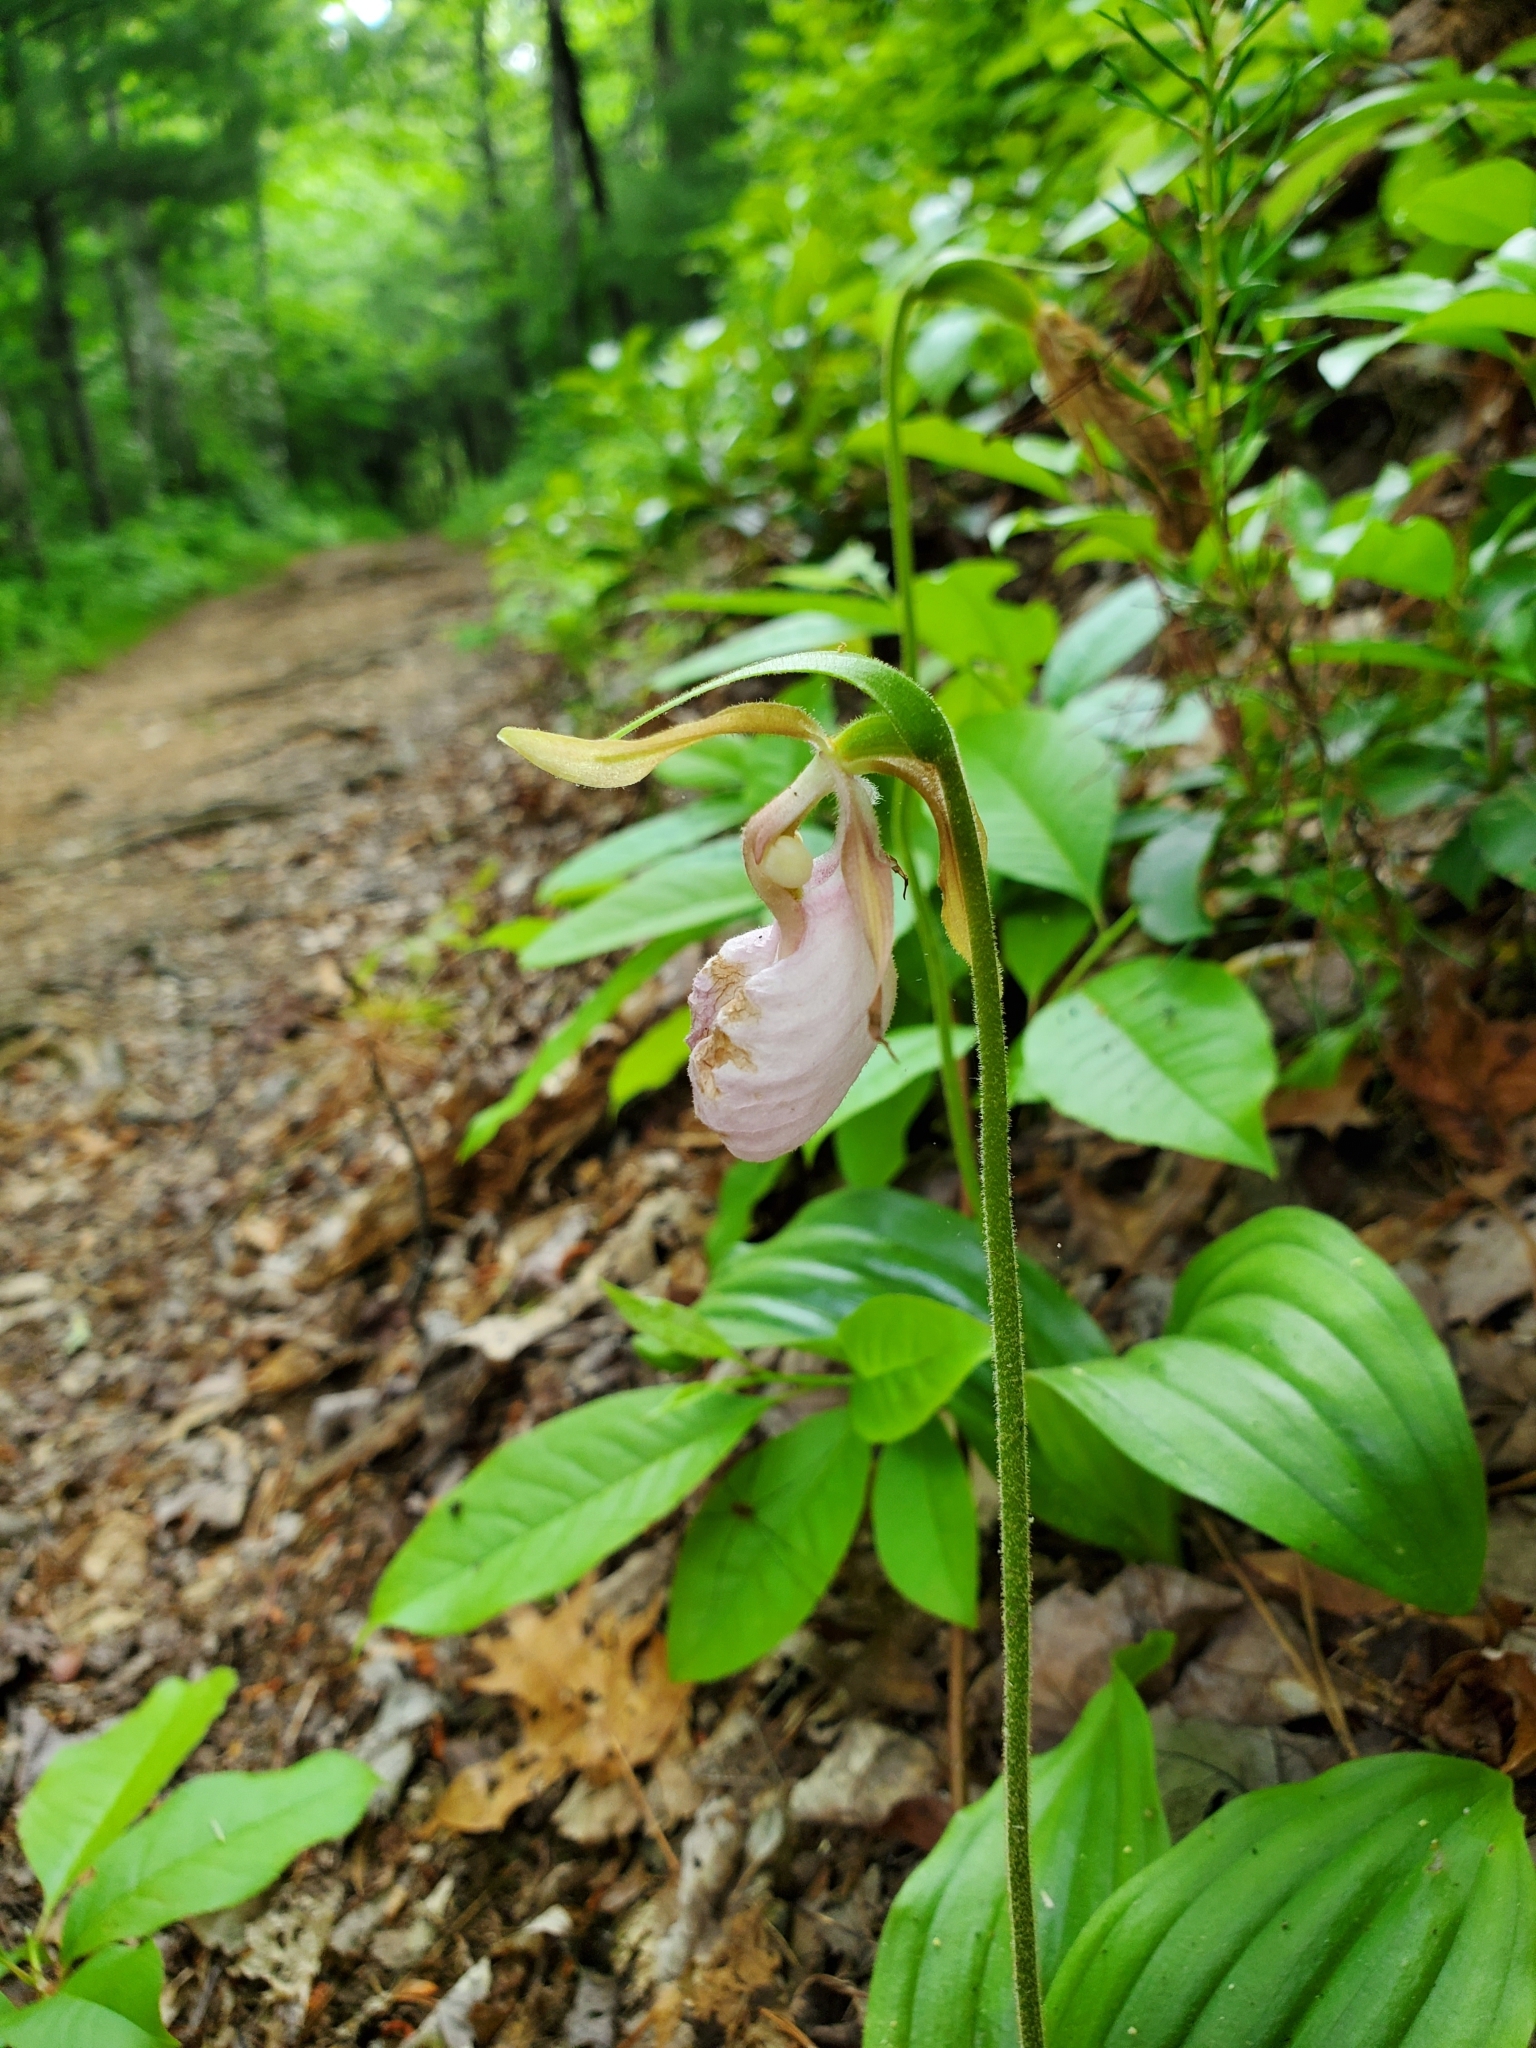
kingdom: Plantae
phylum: Tracheophyta
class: Liliopsida
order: Asparagales
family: Orchidaceae
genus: Cypripedium
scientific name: Cypripedium acaule
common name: Pink lady's-slipper
